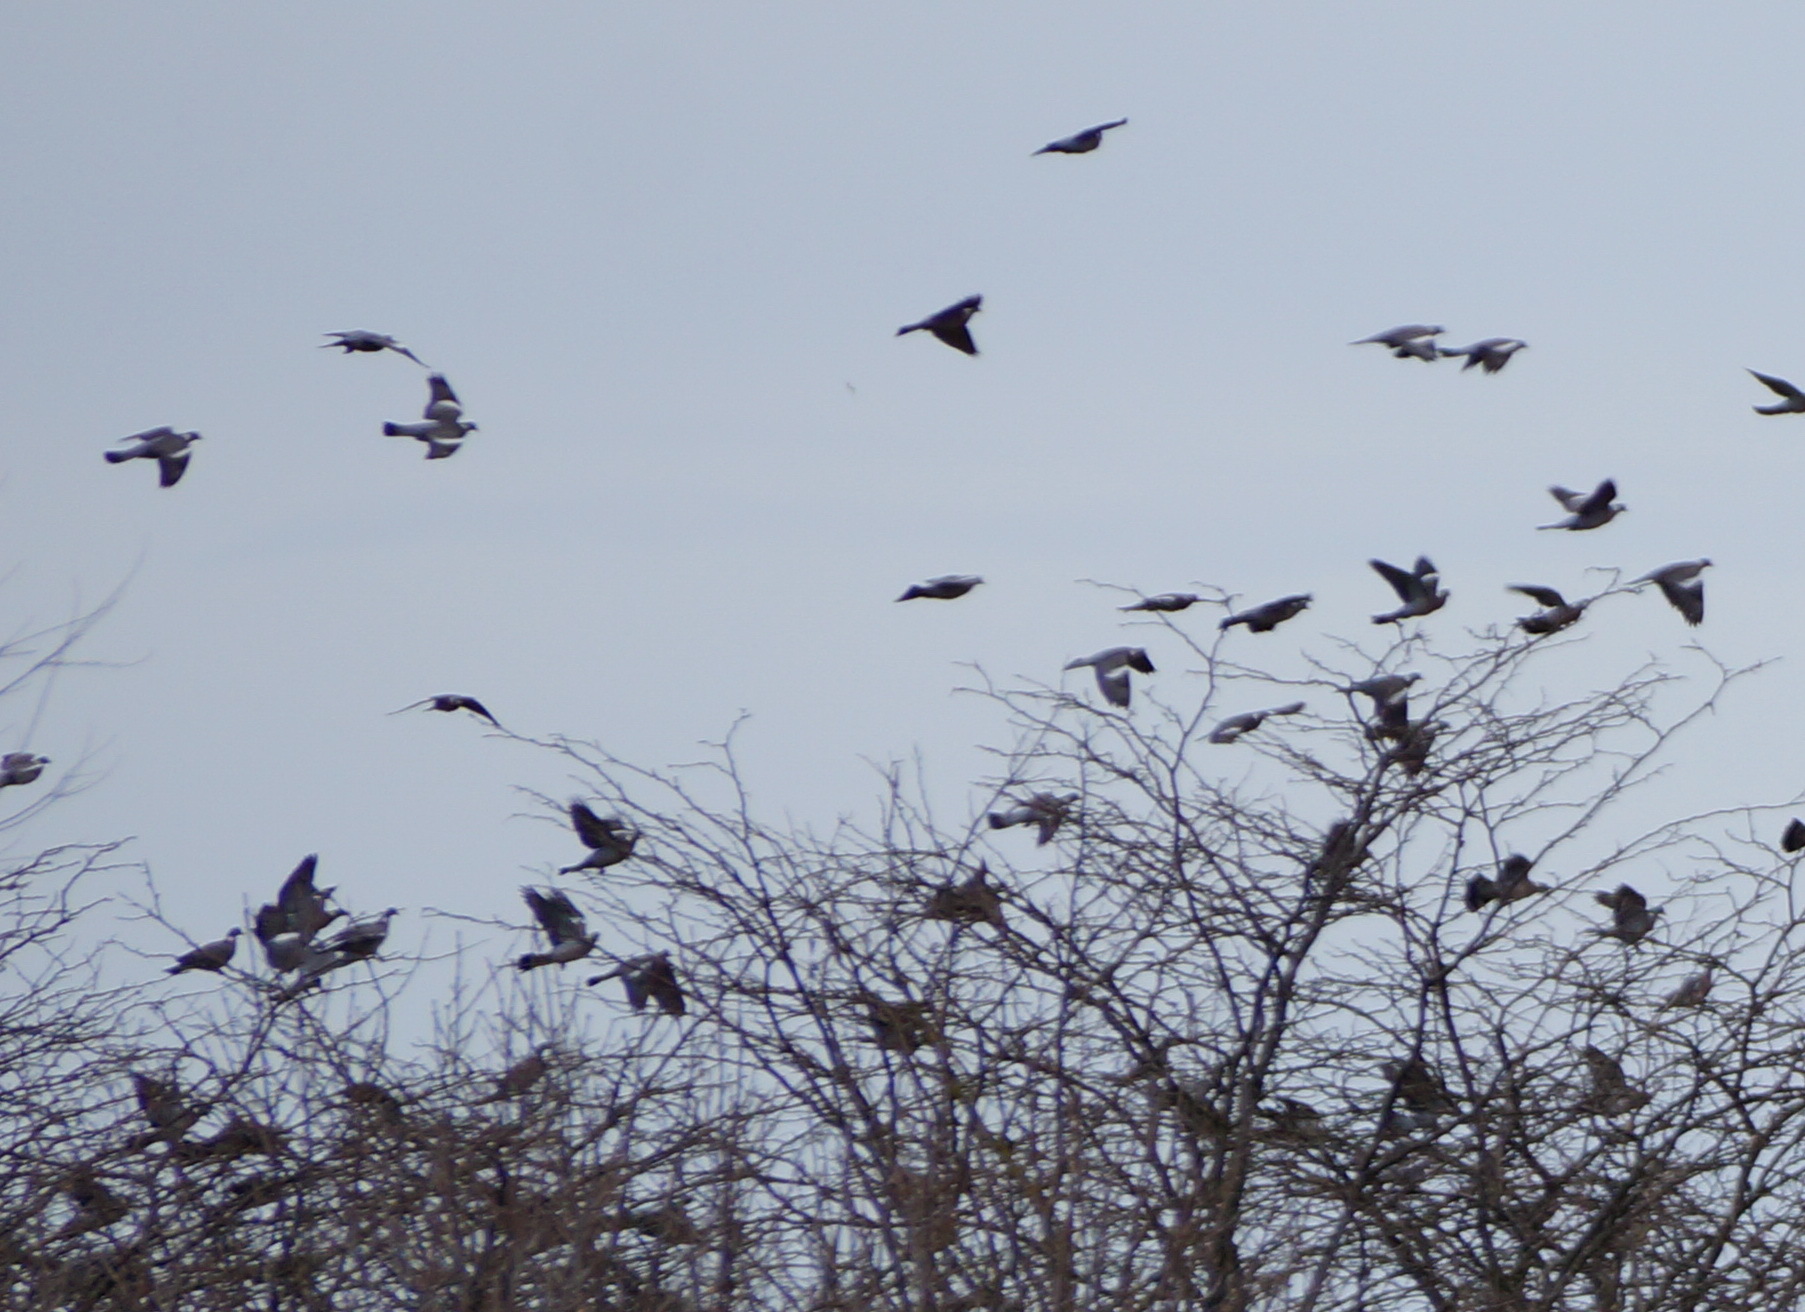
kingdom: Animalia
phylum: Chordata
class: Aves
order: Columbiformes
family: Columbidae
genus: Columba
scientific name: Columba palumbus
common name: Common wood pigeon
